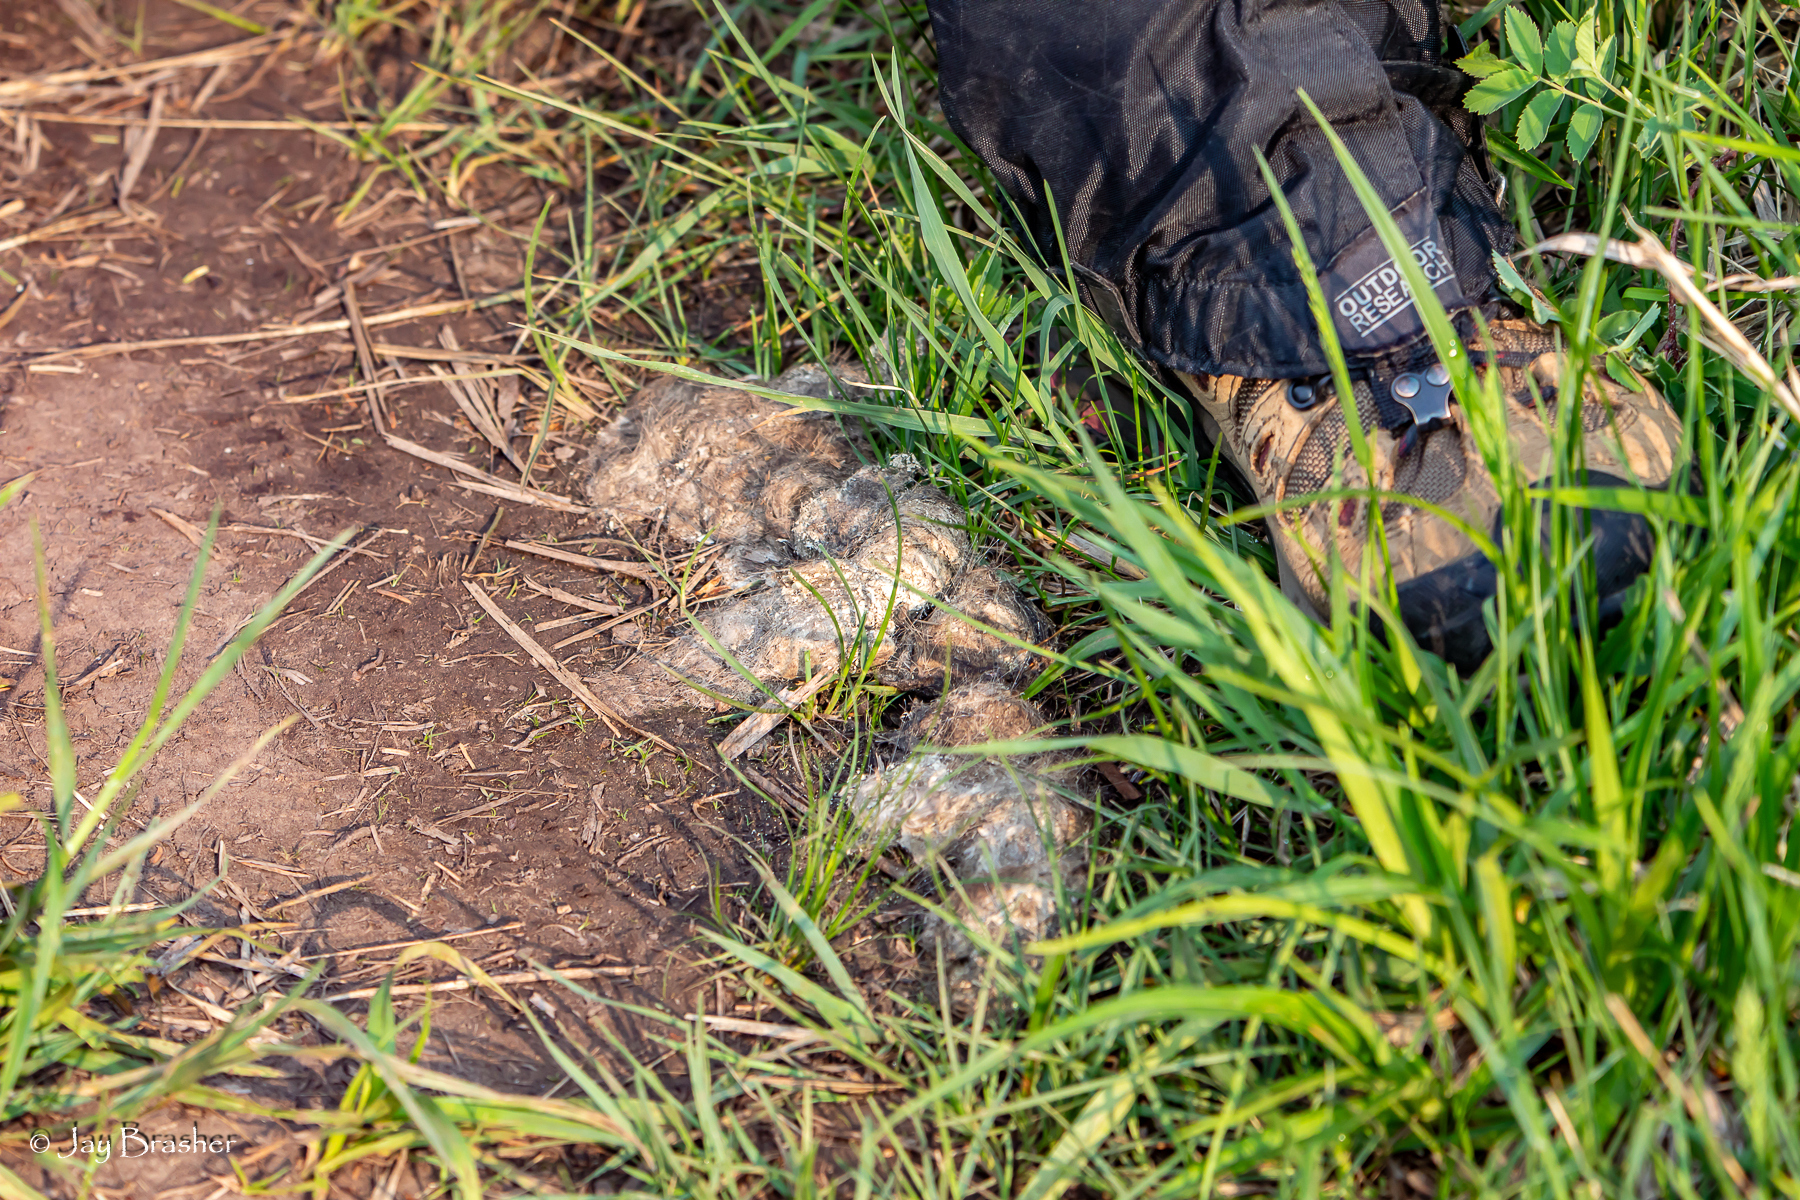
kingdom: Animalia
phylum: Chordata
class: Mammalia
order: Carnivora
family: Canidae
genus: Canis
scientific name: Canis lupus
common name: Gray wolf
